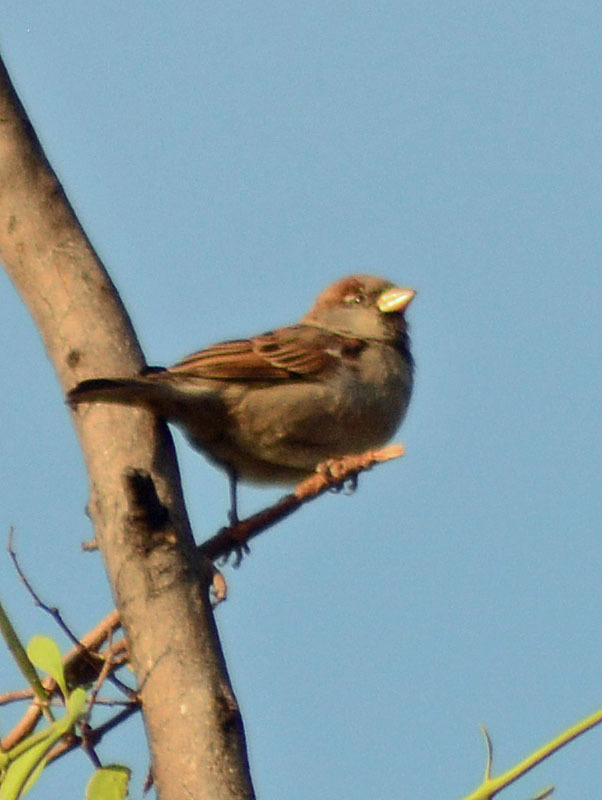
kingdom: Animalia
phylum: Chordata
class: Aves
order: Passeriformes
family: Passeridae
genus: Passer
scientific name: Passer domesticus
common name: House sparrow
